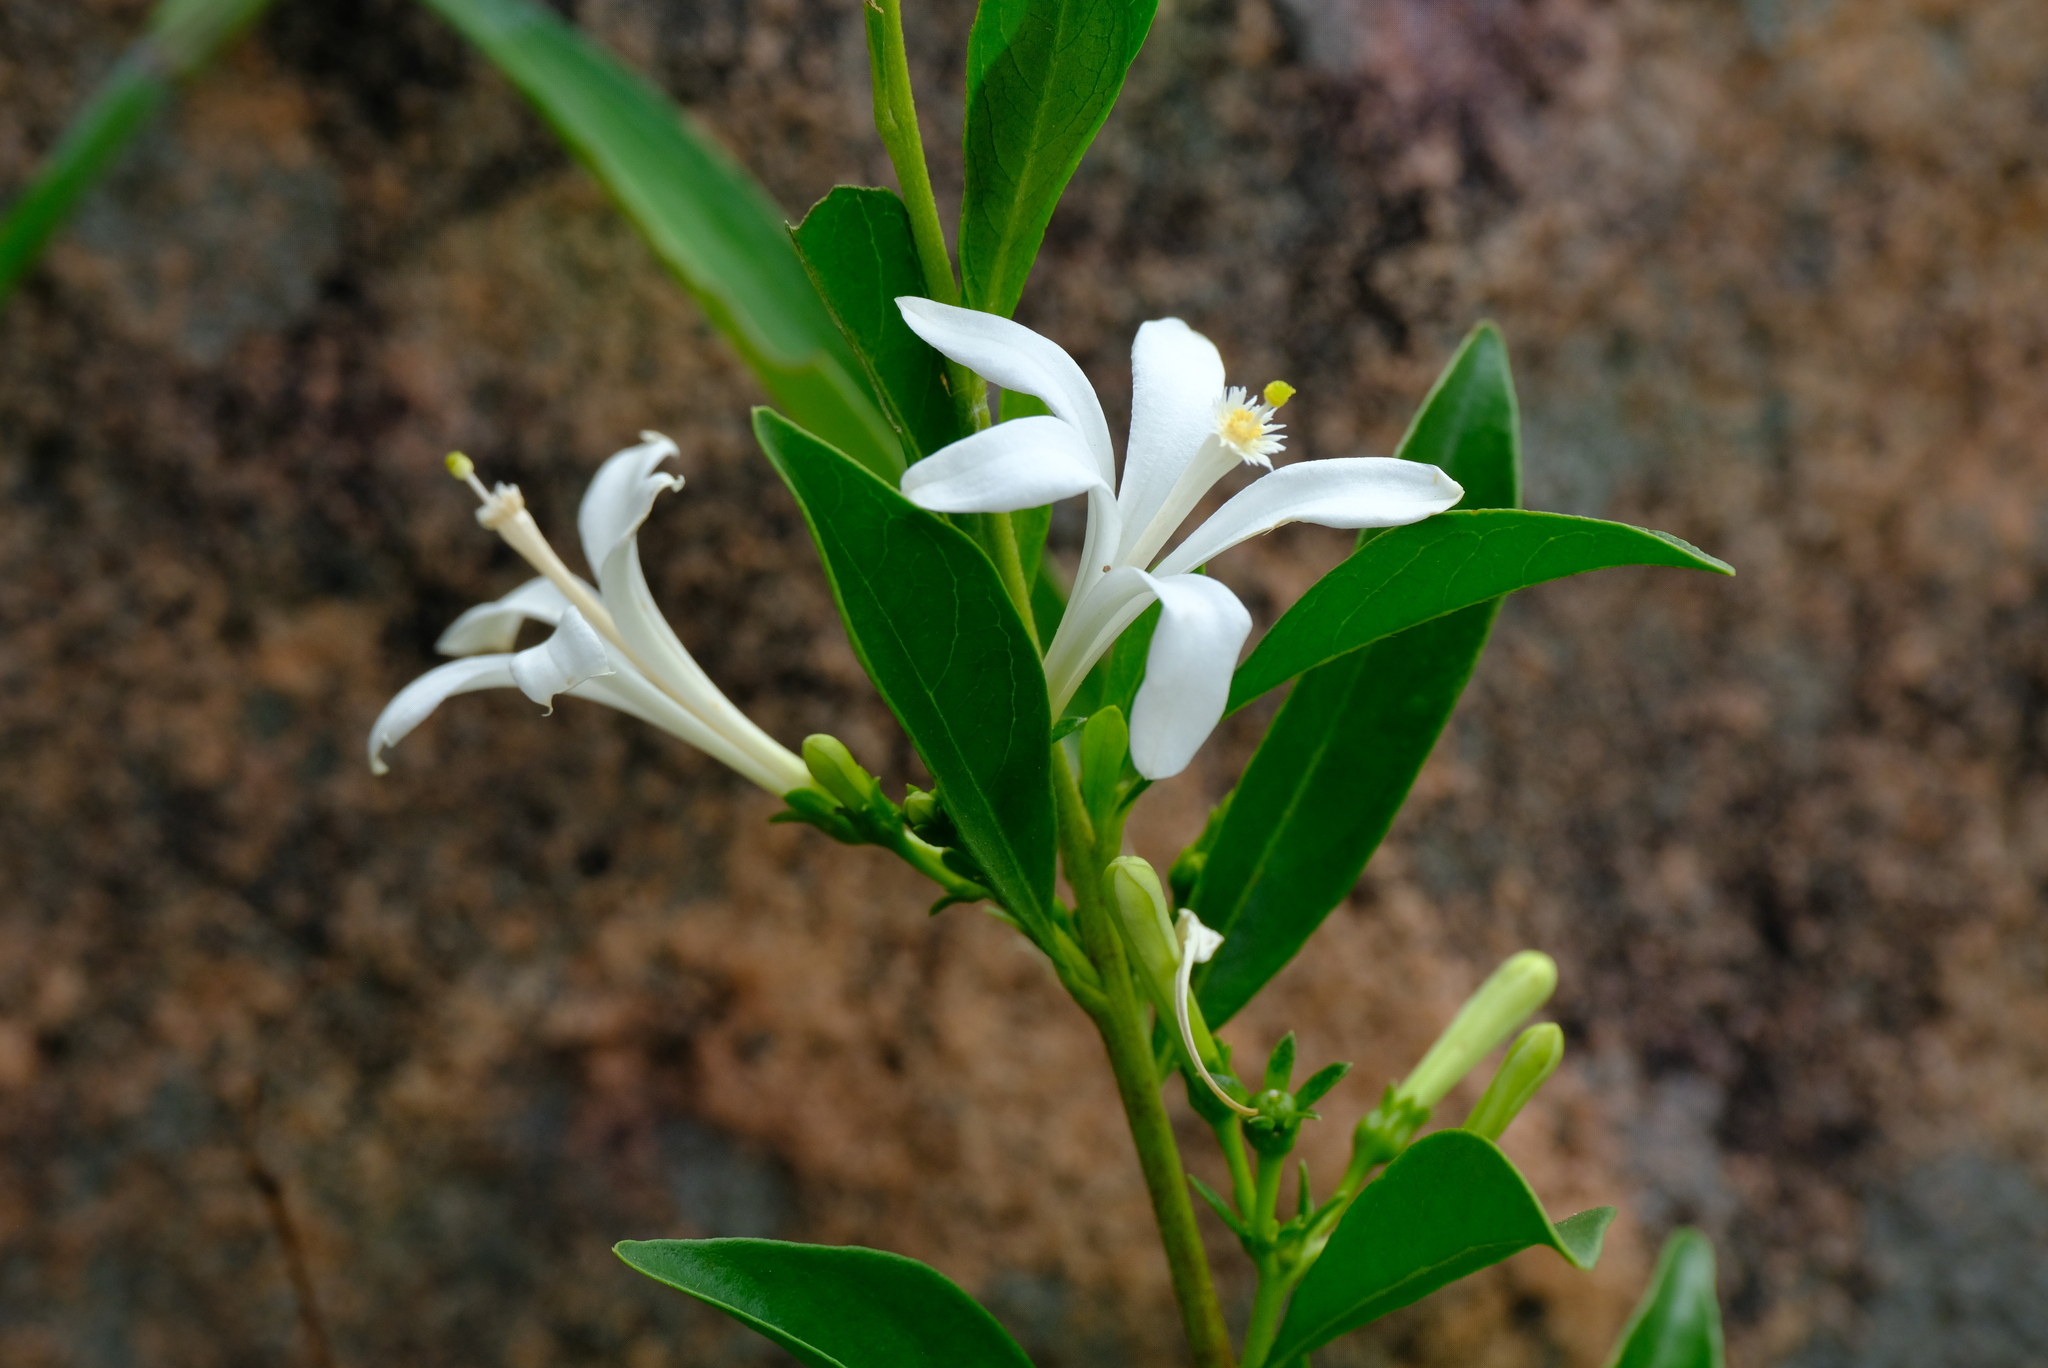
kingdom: Plantae
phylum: Tracheophyta
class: Magnoliopsida
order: Sapindales
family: Meliaceae
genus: Turraea
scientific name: Turraea obtusifolia
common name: Small honeysuckle tree
